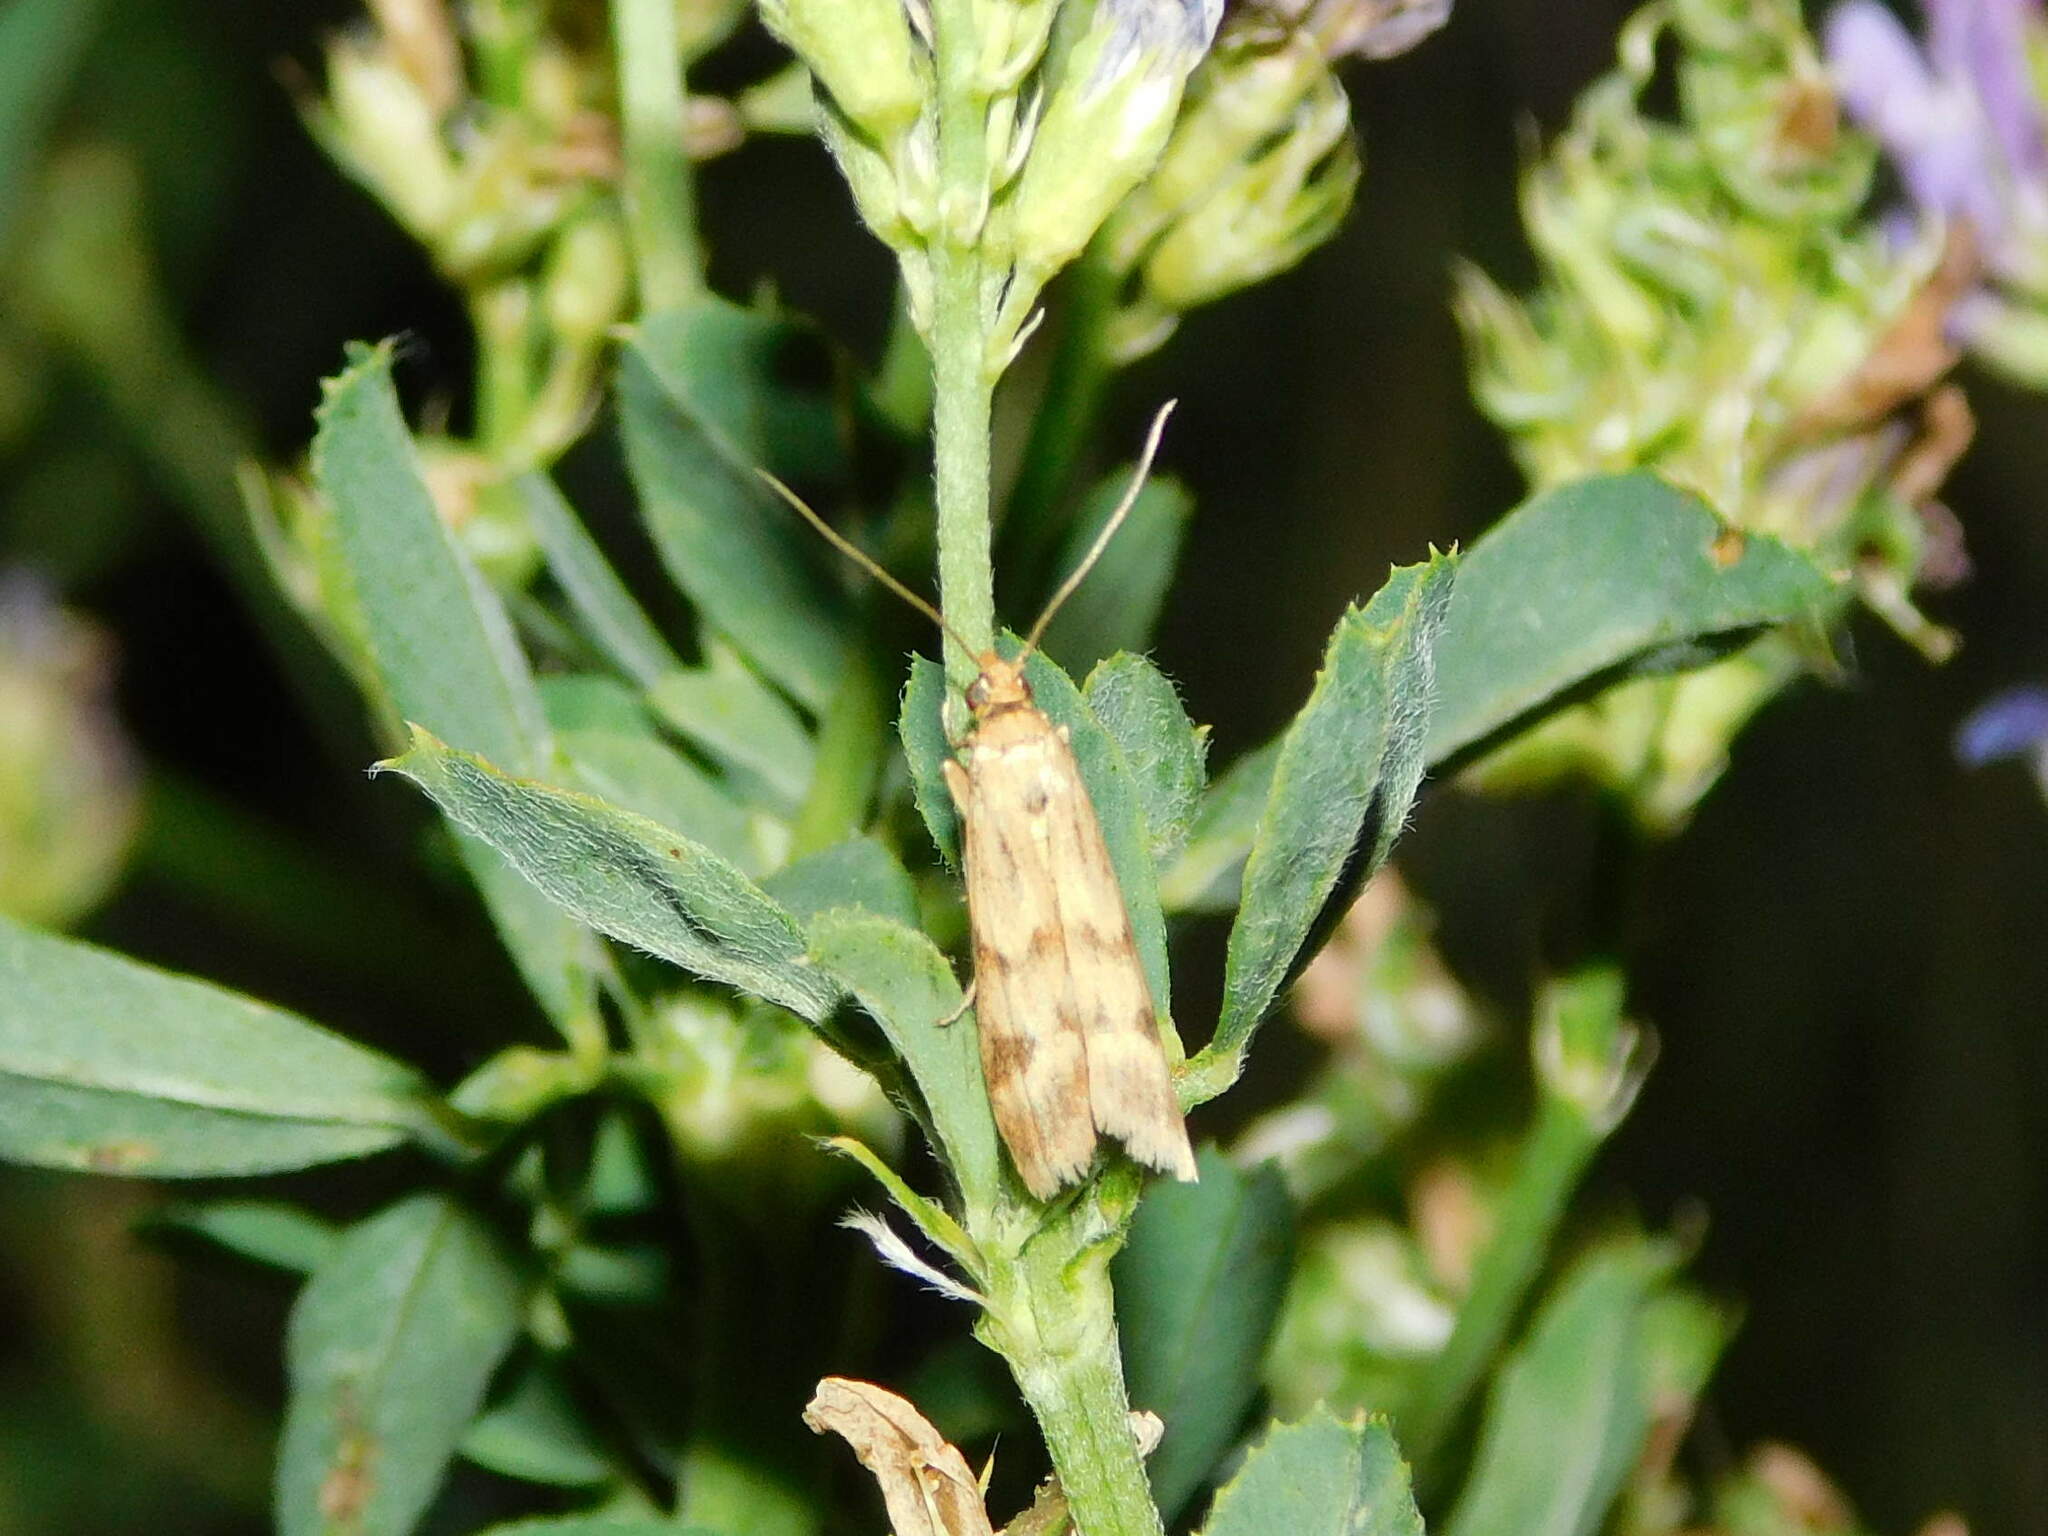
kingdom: Animalia
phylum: Arthropoda
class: Insecta
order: Lepidoptera
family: Pyralidae
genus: Homoeosoma
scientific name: Homoeosoma sinuella
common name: Twin-barred knot-horn
